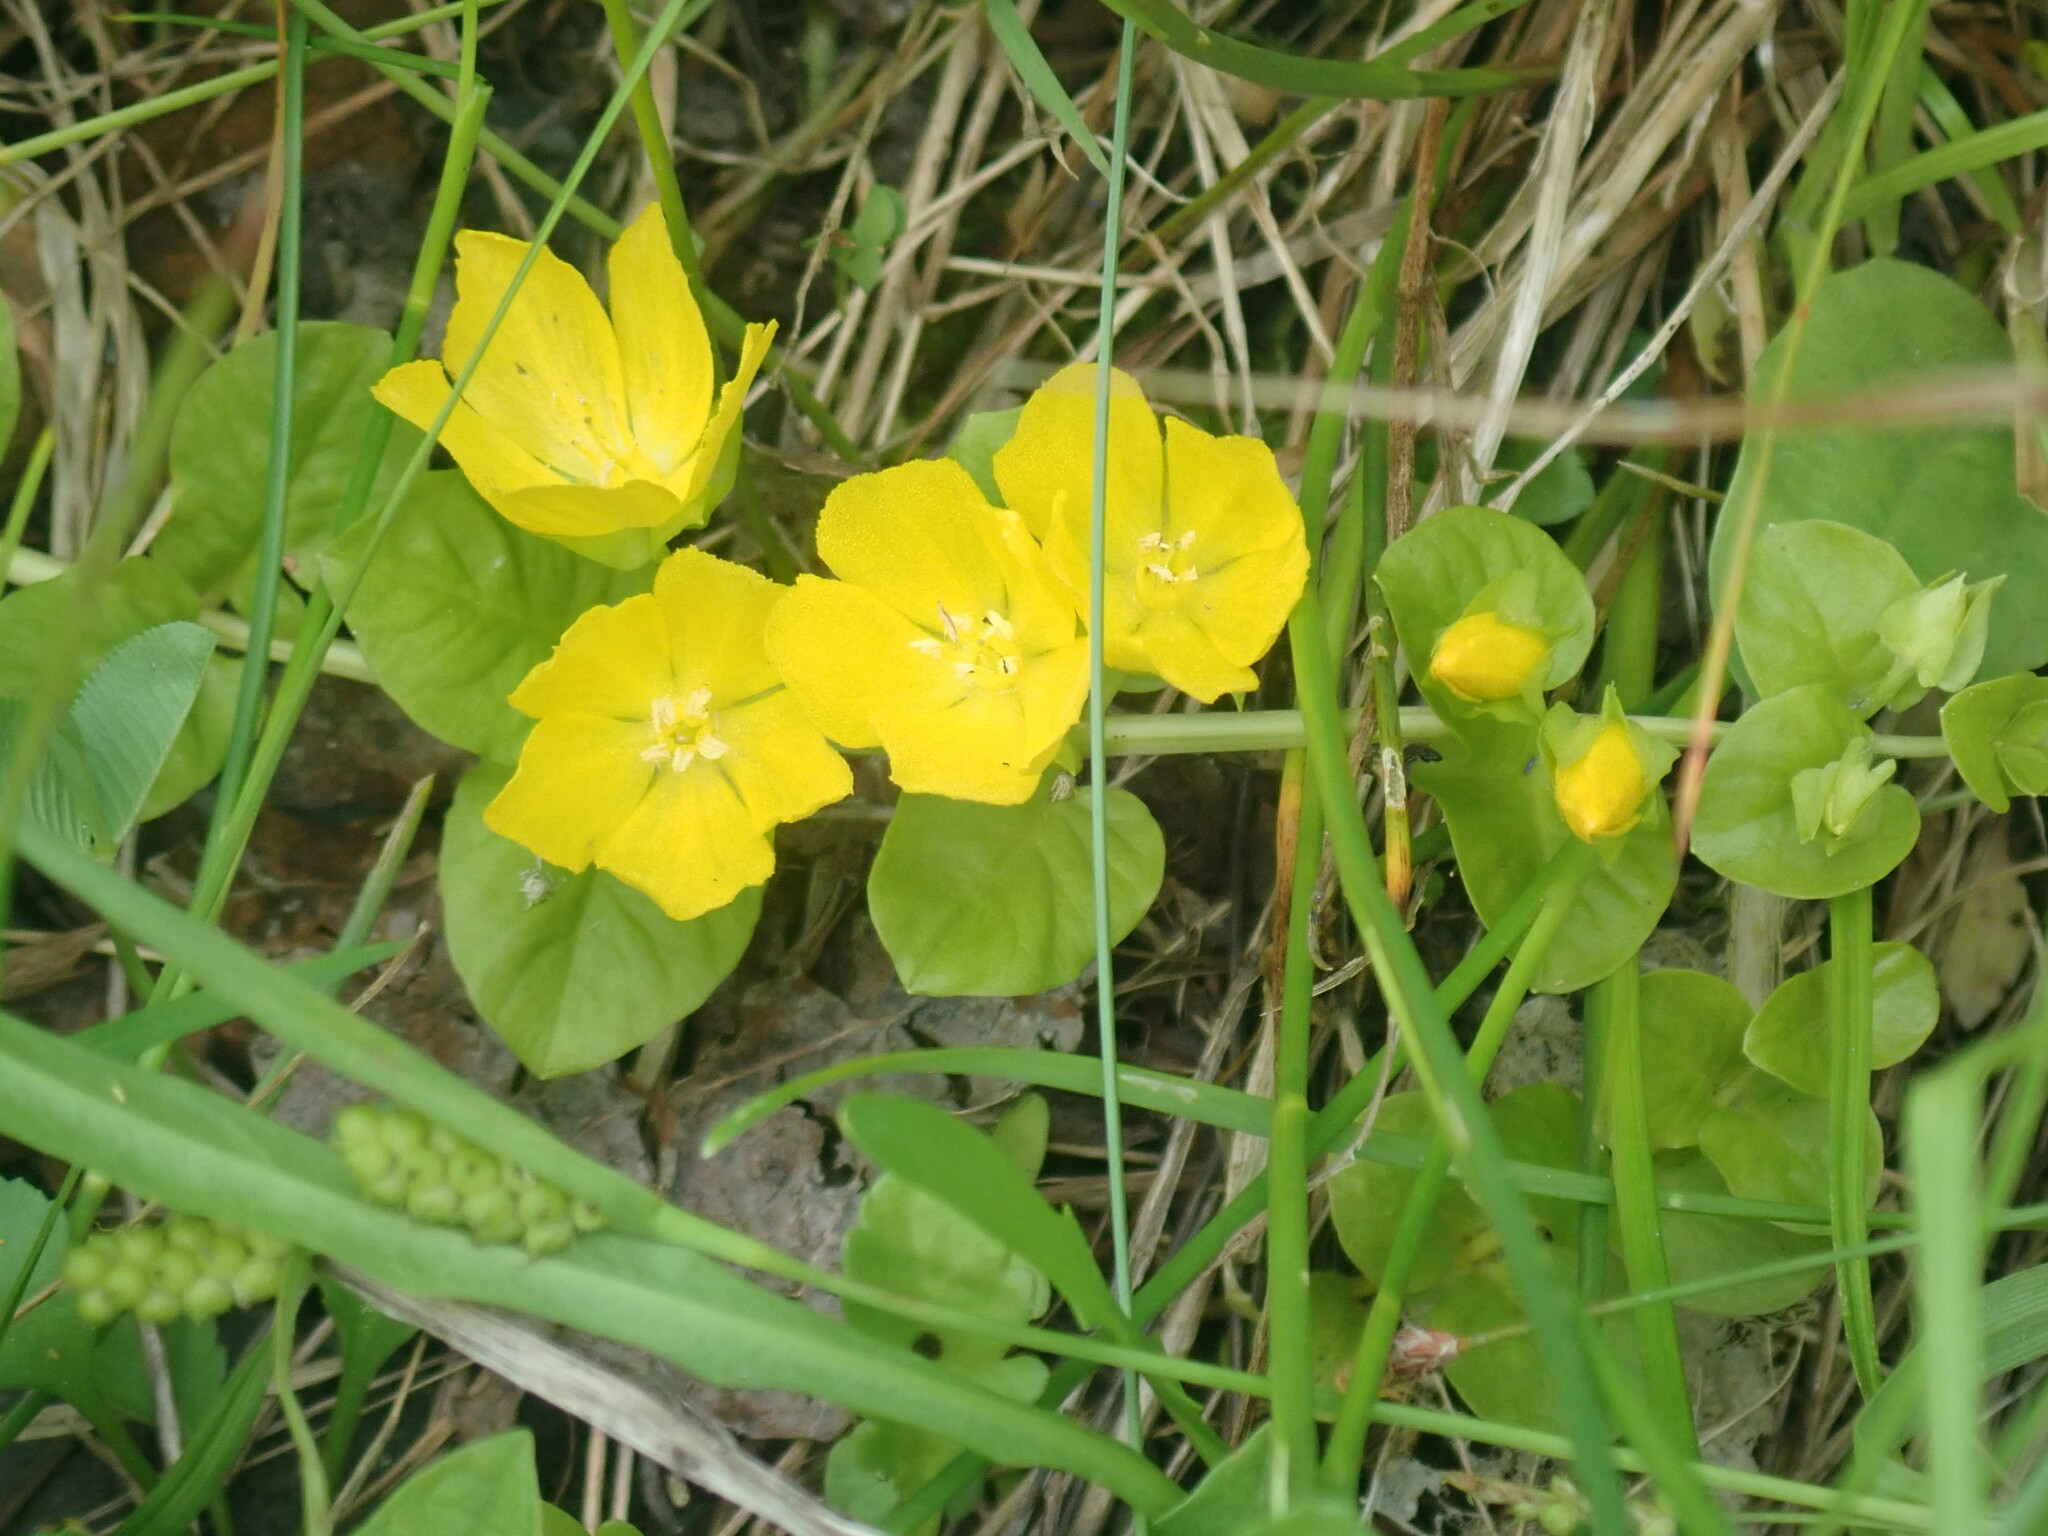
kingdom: Plantae
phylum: Tracheophyta
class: Magnoliopsida
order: Ericales
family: Primulaceae
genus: Lysimachia
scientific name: Lysimachia nummularia
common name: Moneywort
